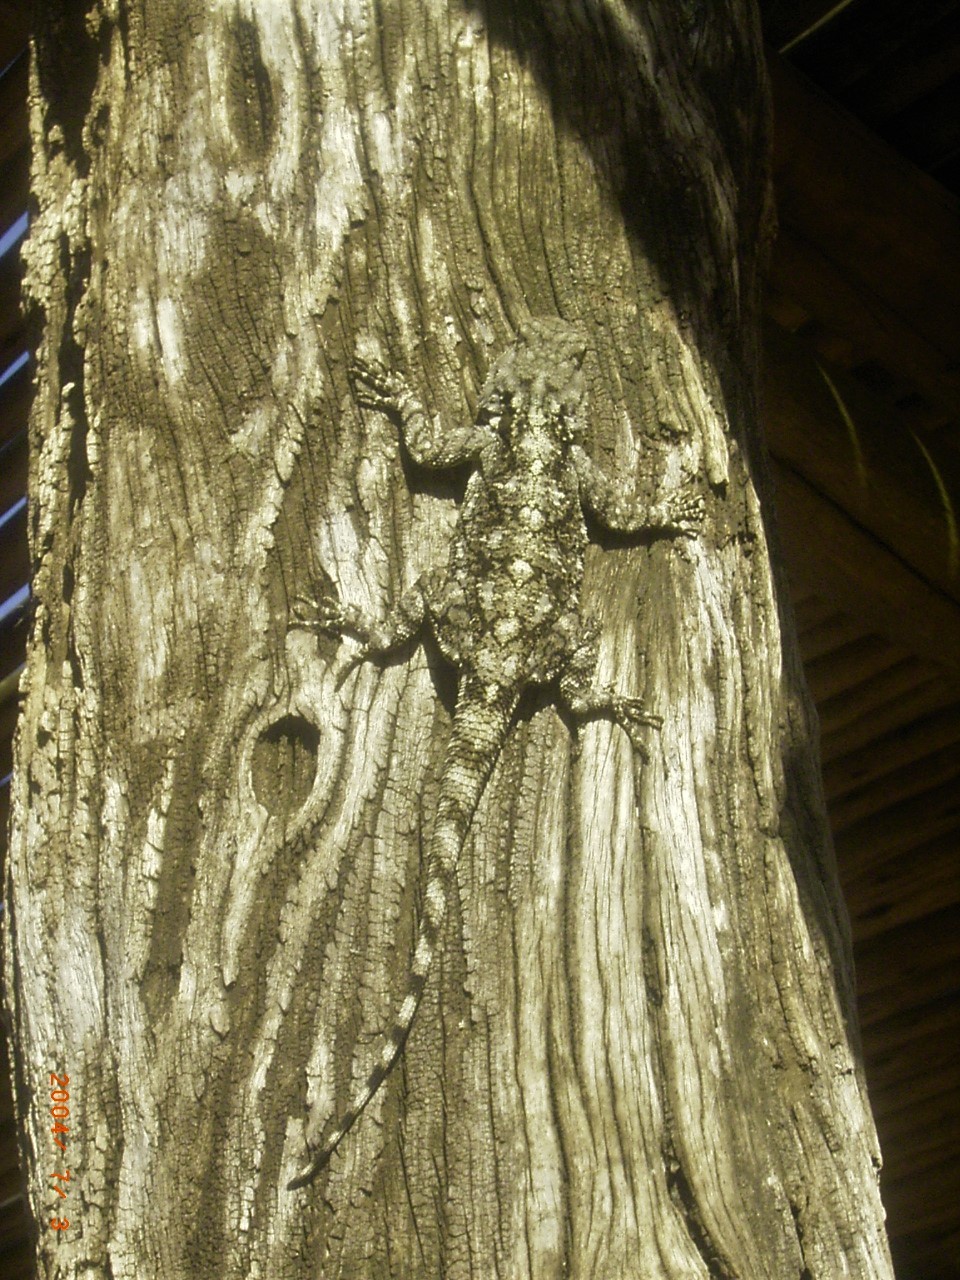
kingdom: Animalia
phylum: Chordata
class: Squamata
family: Agamidae
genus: Acanthocercus
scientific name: Acanthocercus atricollis
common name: Southern tree agama
